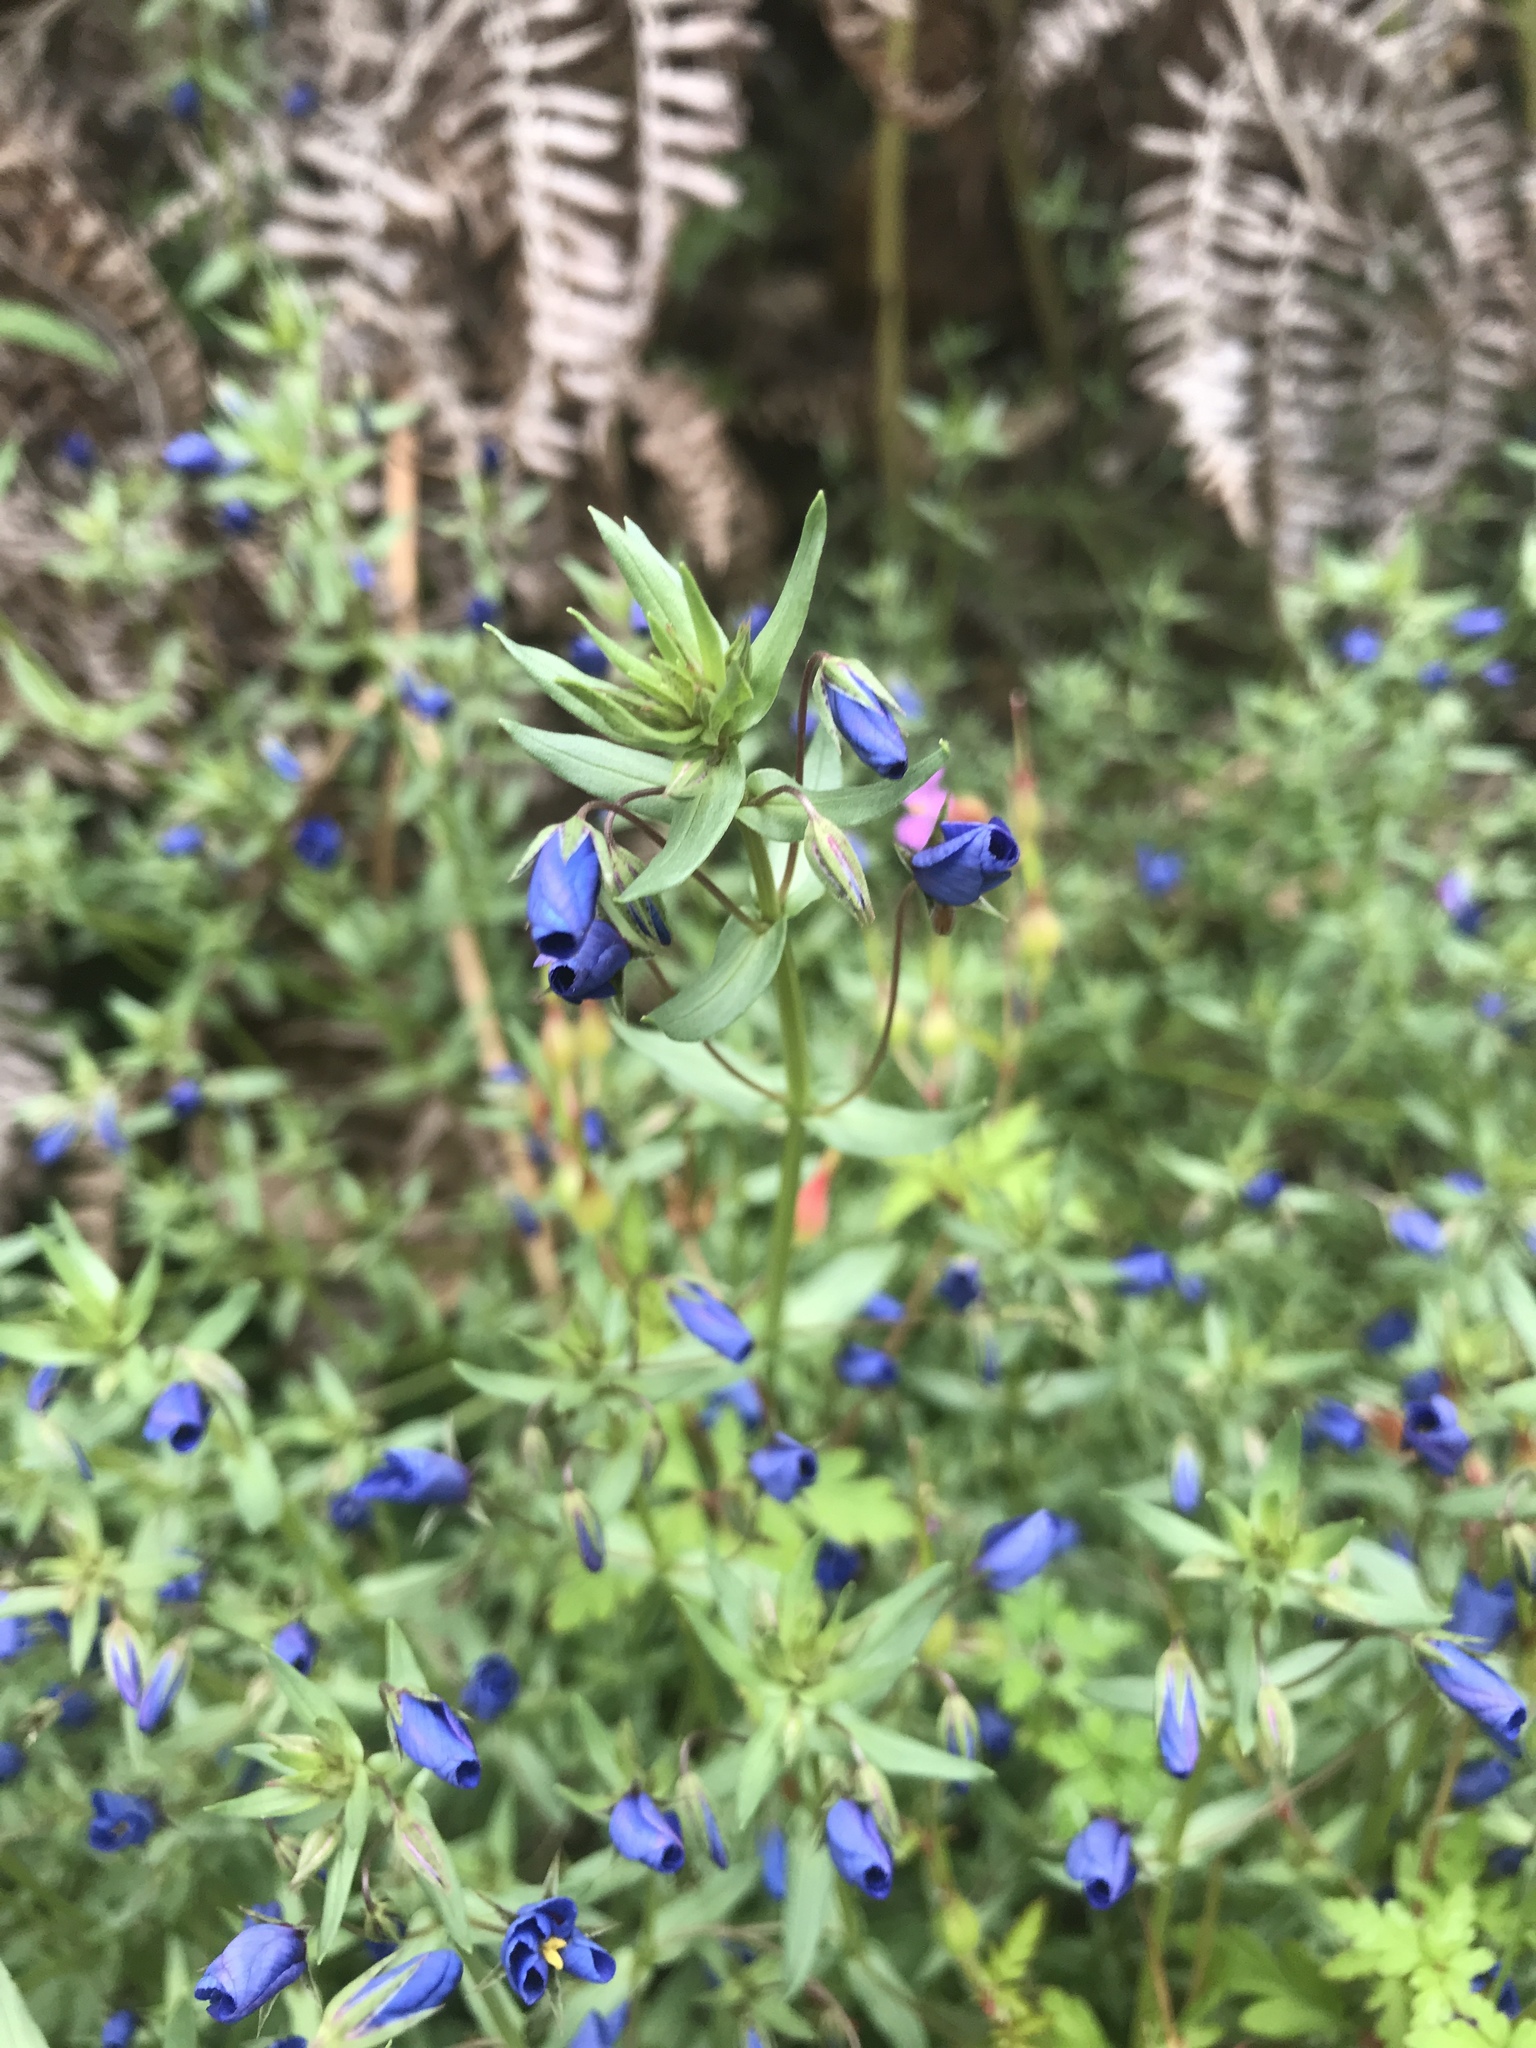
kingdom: Plantae
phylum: Tracheophyta
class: Magnoliopsida
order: Ericales
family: Primulaceae
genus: Lysimachia
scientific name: Lysimachia monelli
